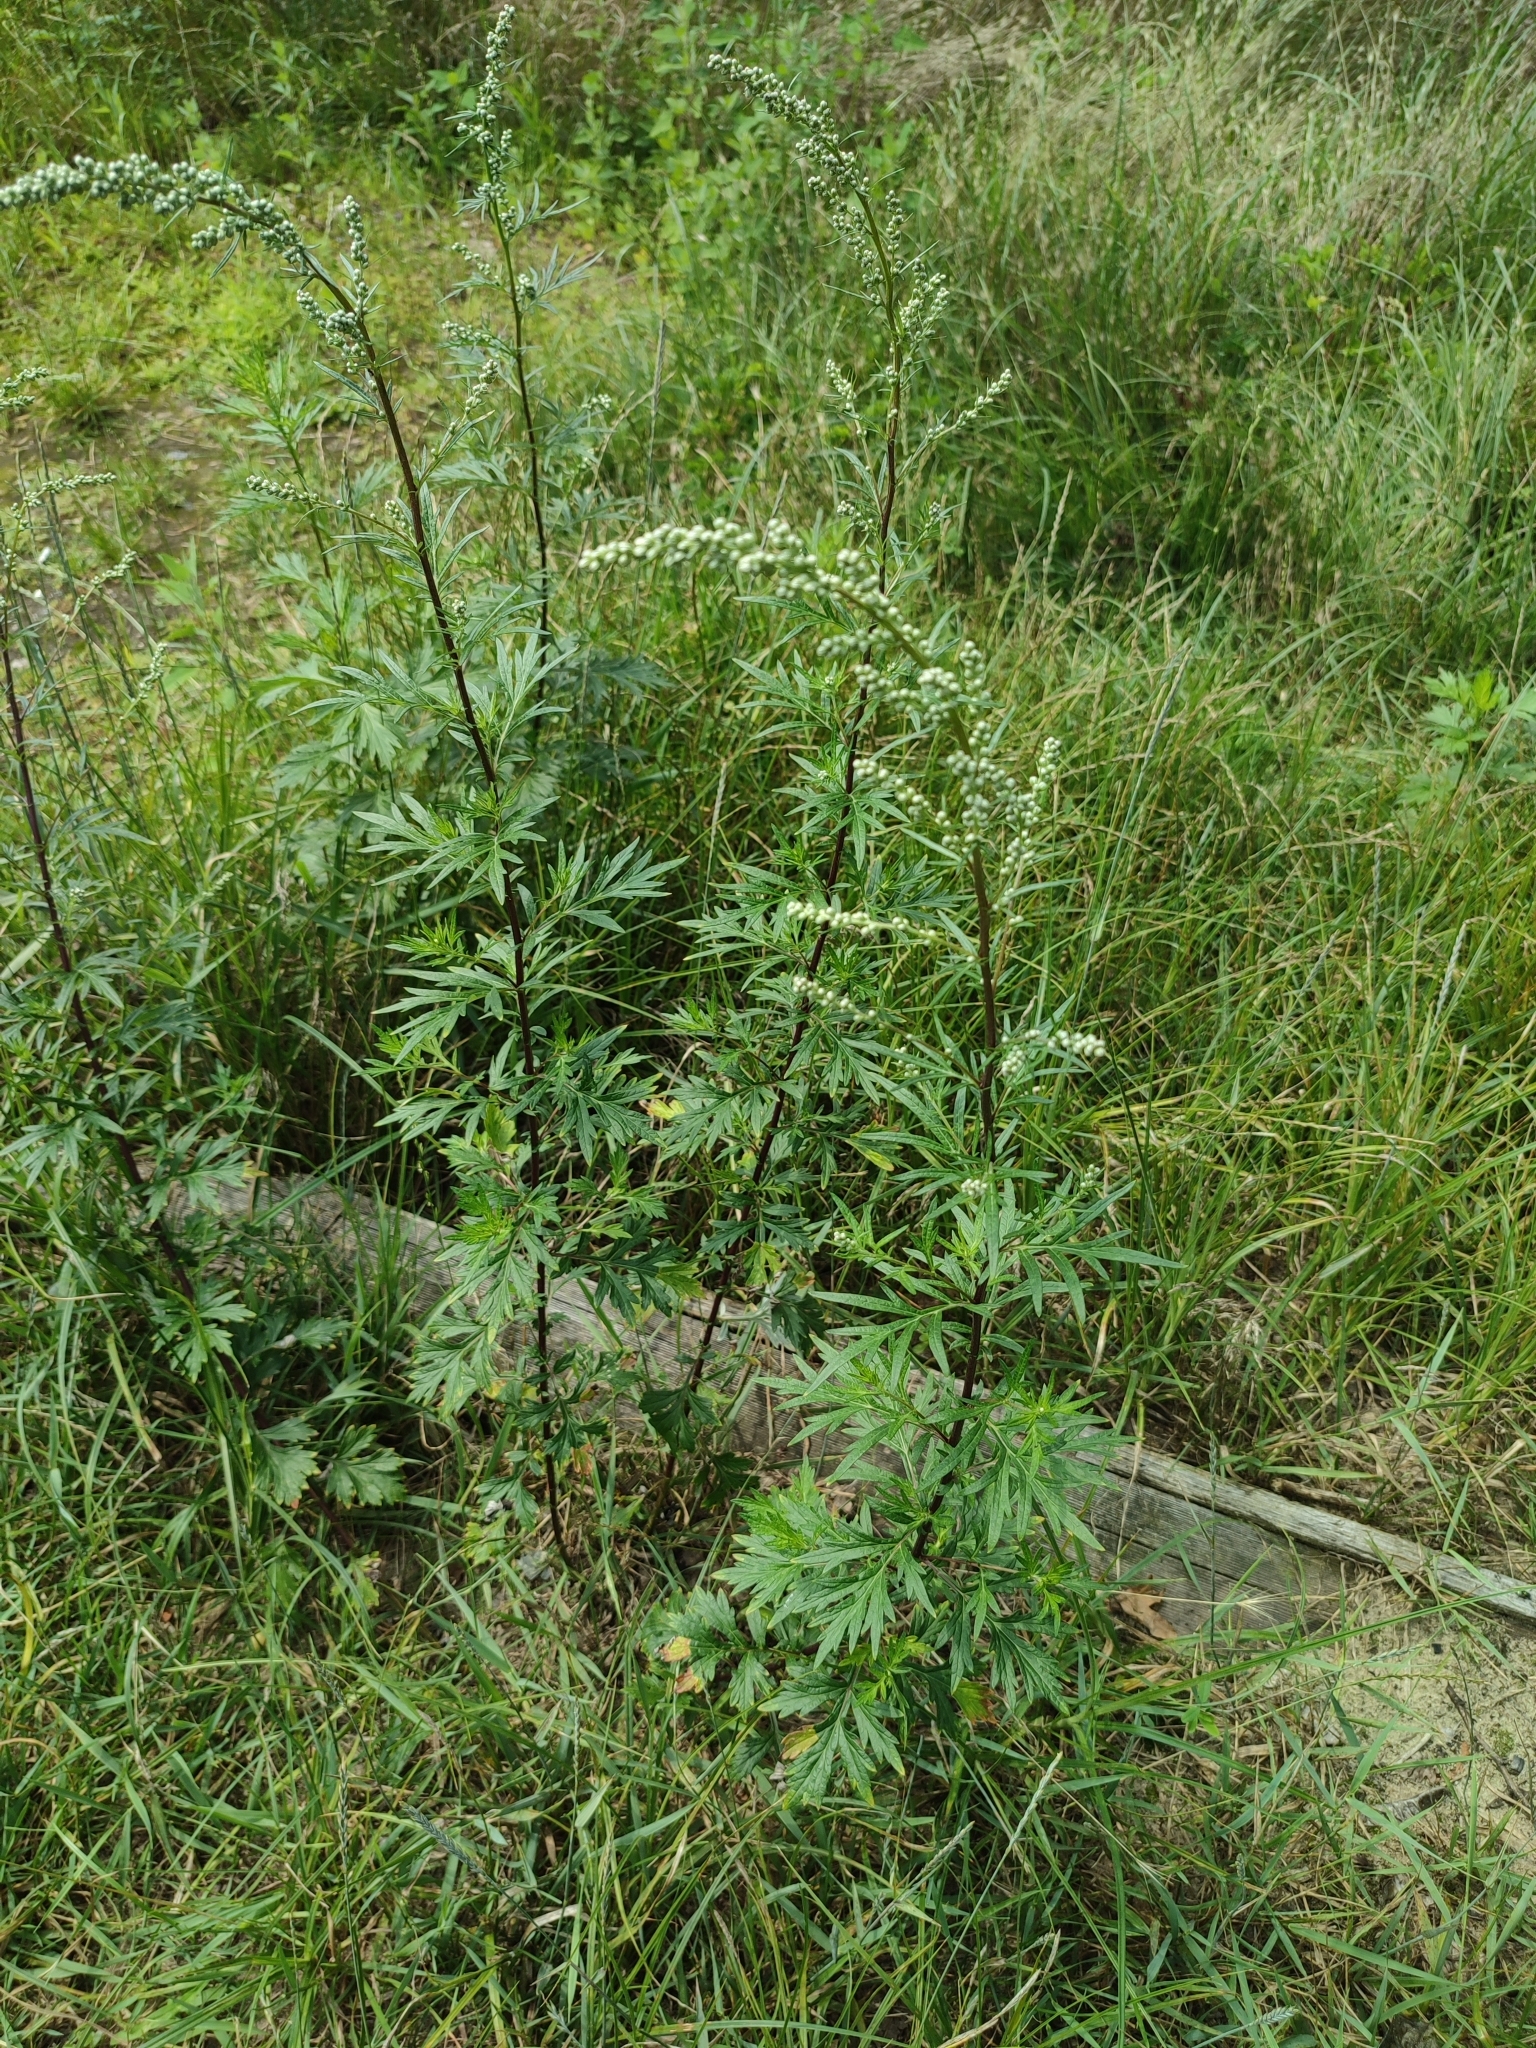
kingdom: Plantae
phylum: Tracheophyta
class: Magnoliopsida
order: Asterales
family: Asteraceae
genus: Artemisia
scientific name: Artemisia vulgaris
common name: Mugwort
